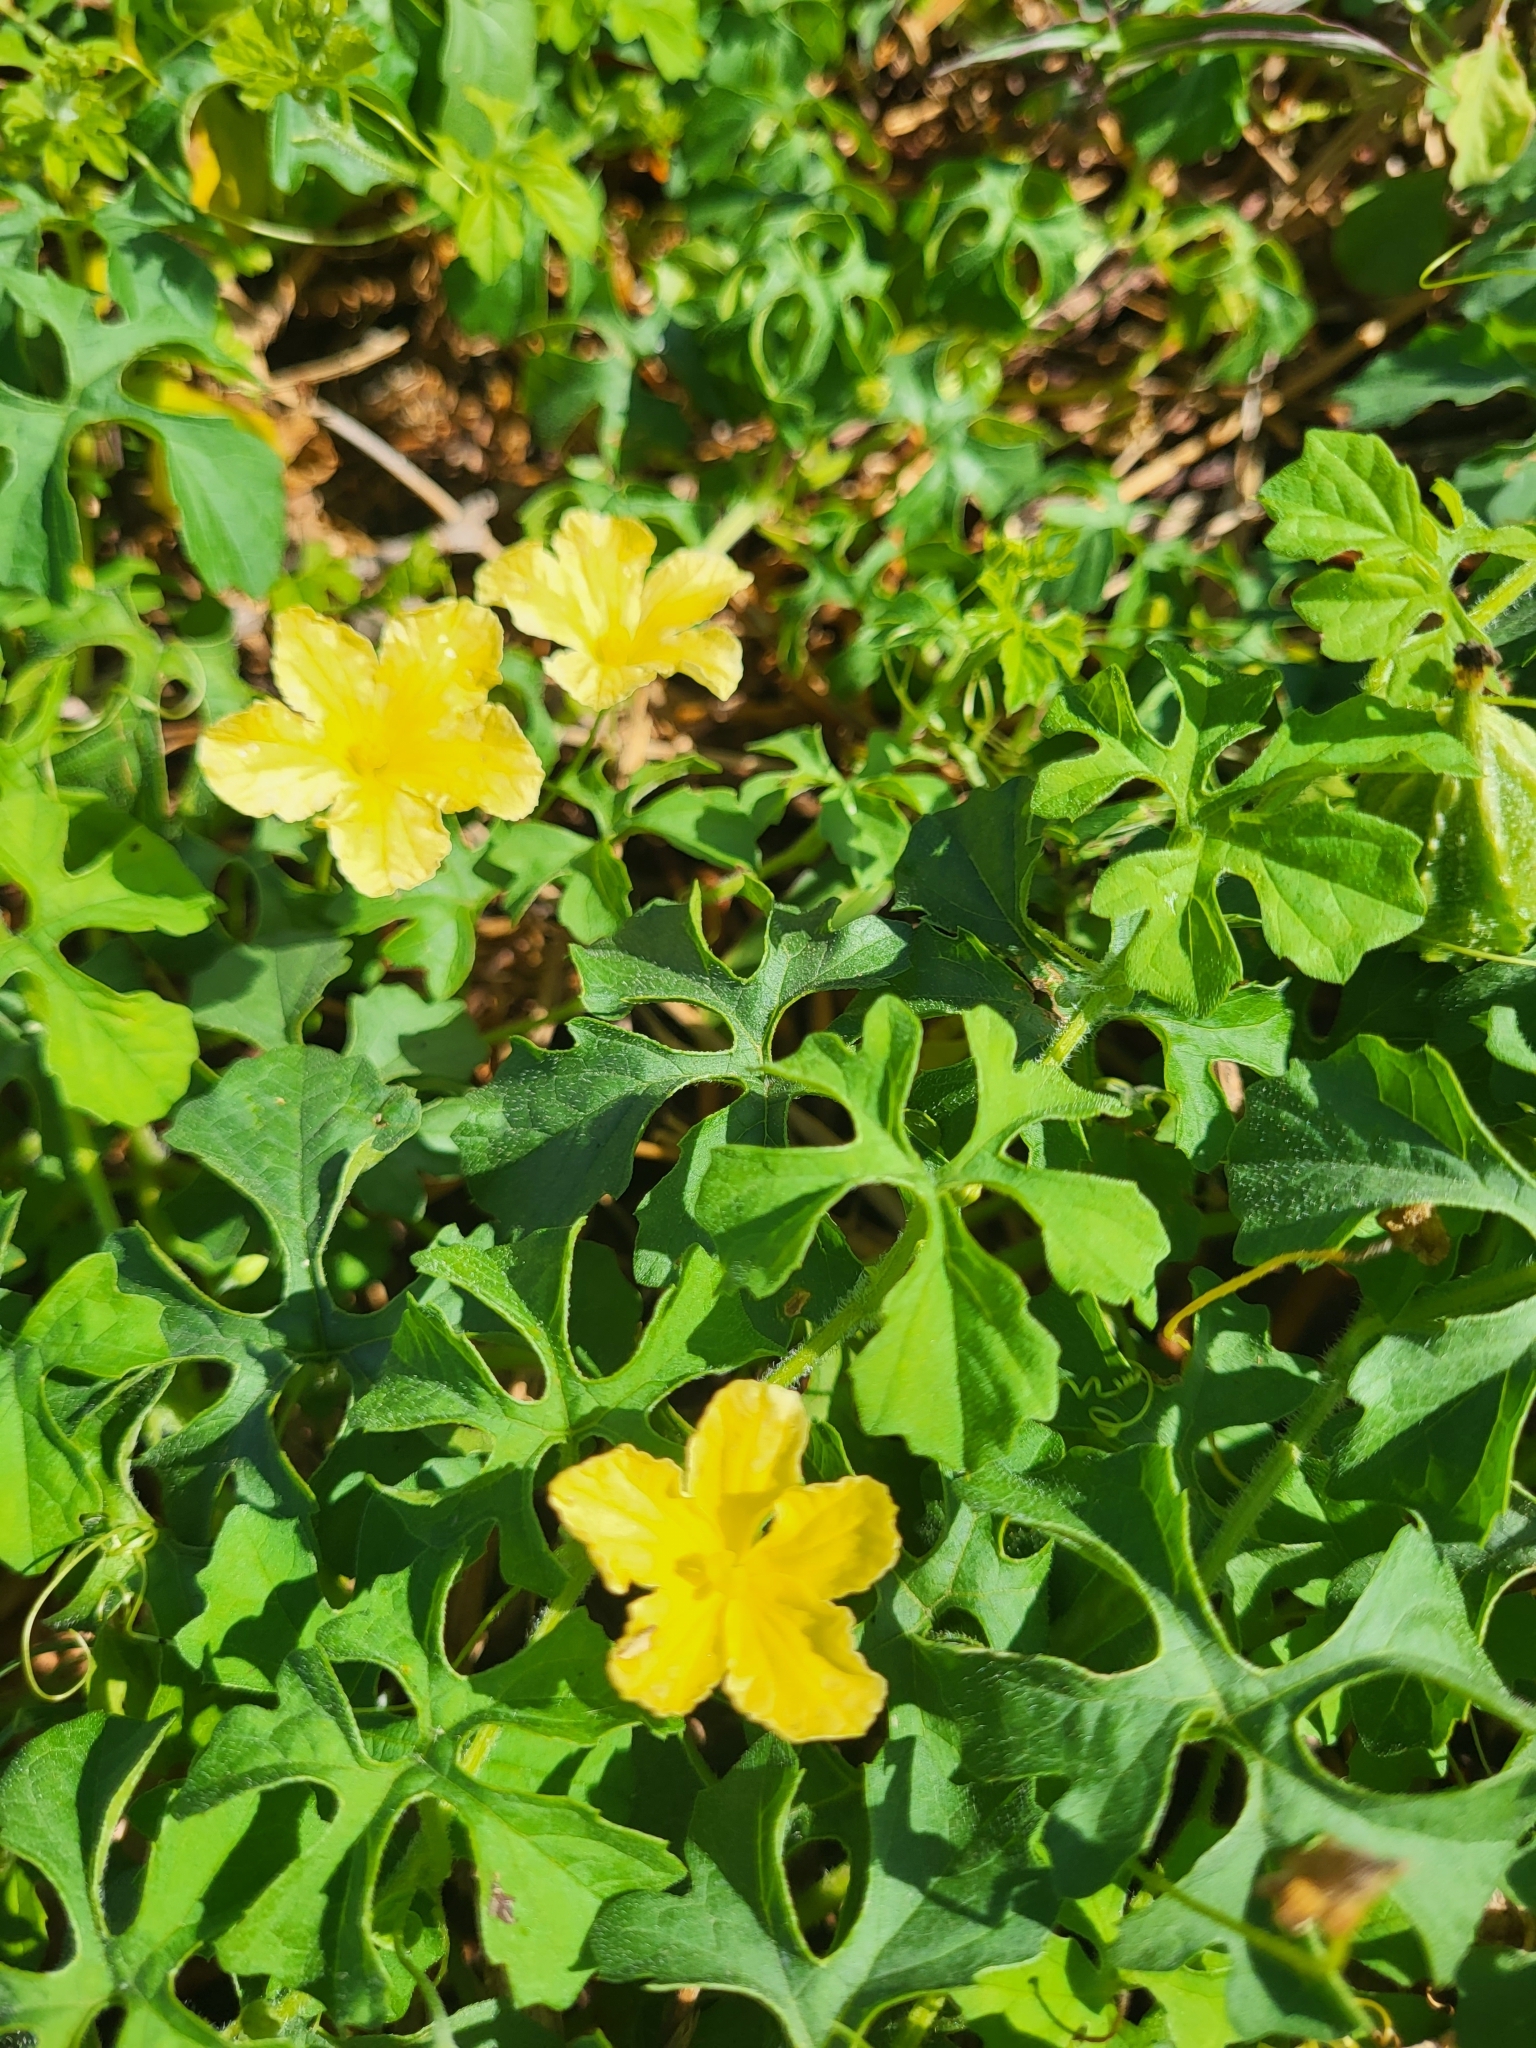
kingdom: Plantae
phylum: Tracheophyta
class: Magnoliopsida
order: Cucurbitales
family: Cucurbitaceae
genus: Momordica
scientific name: Momordica charantia
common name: Balsampear
